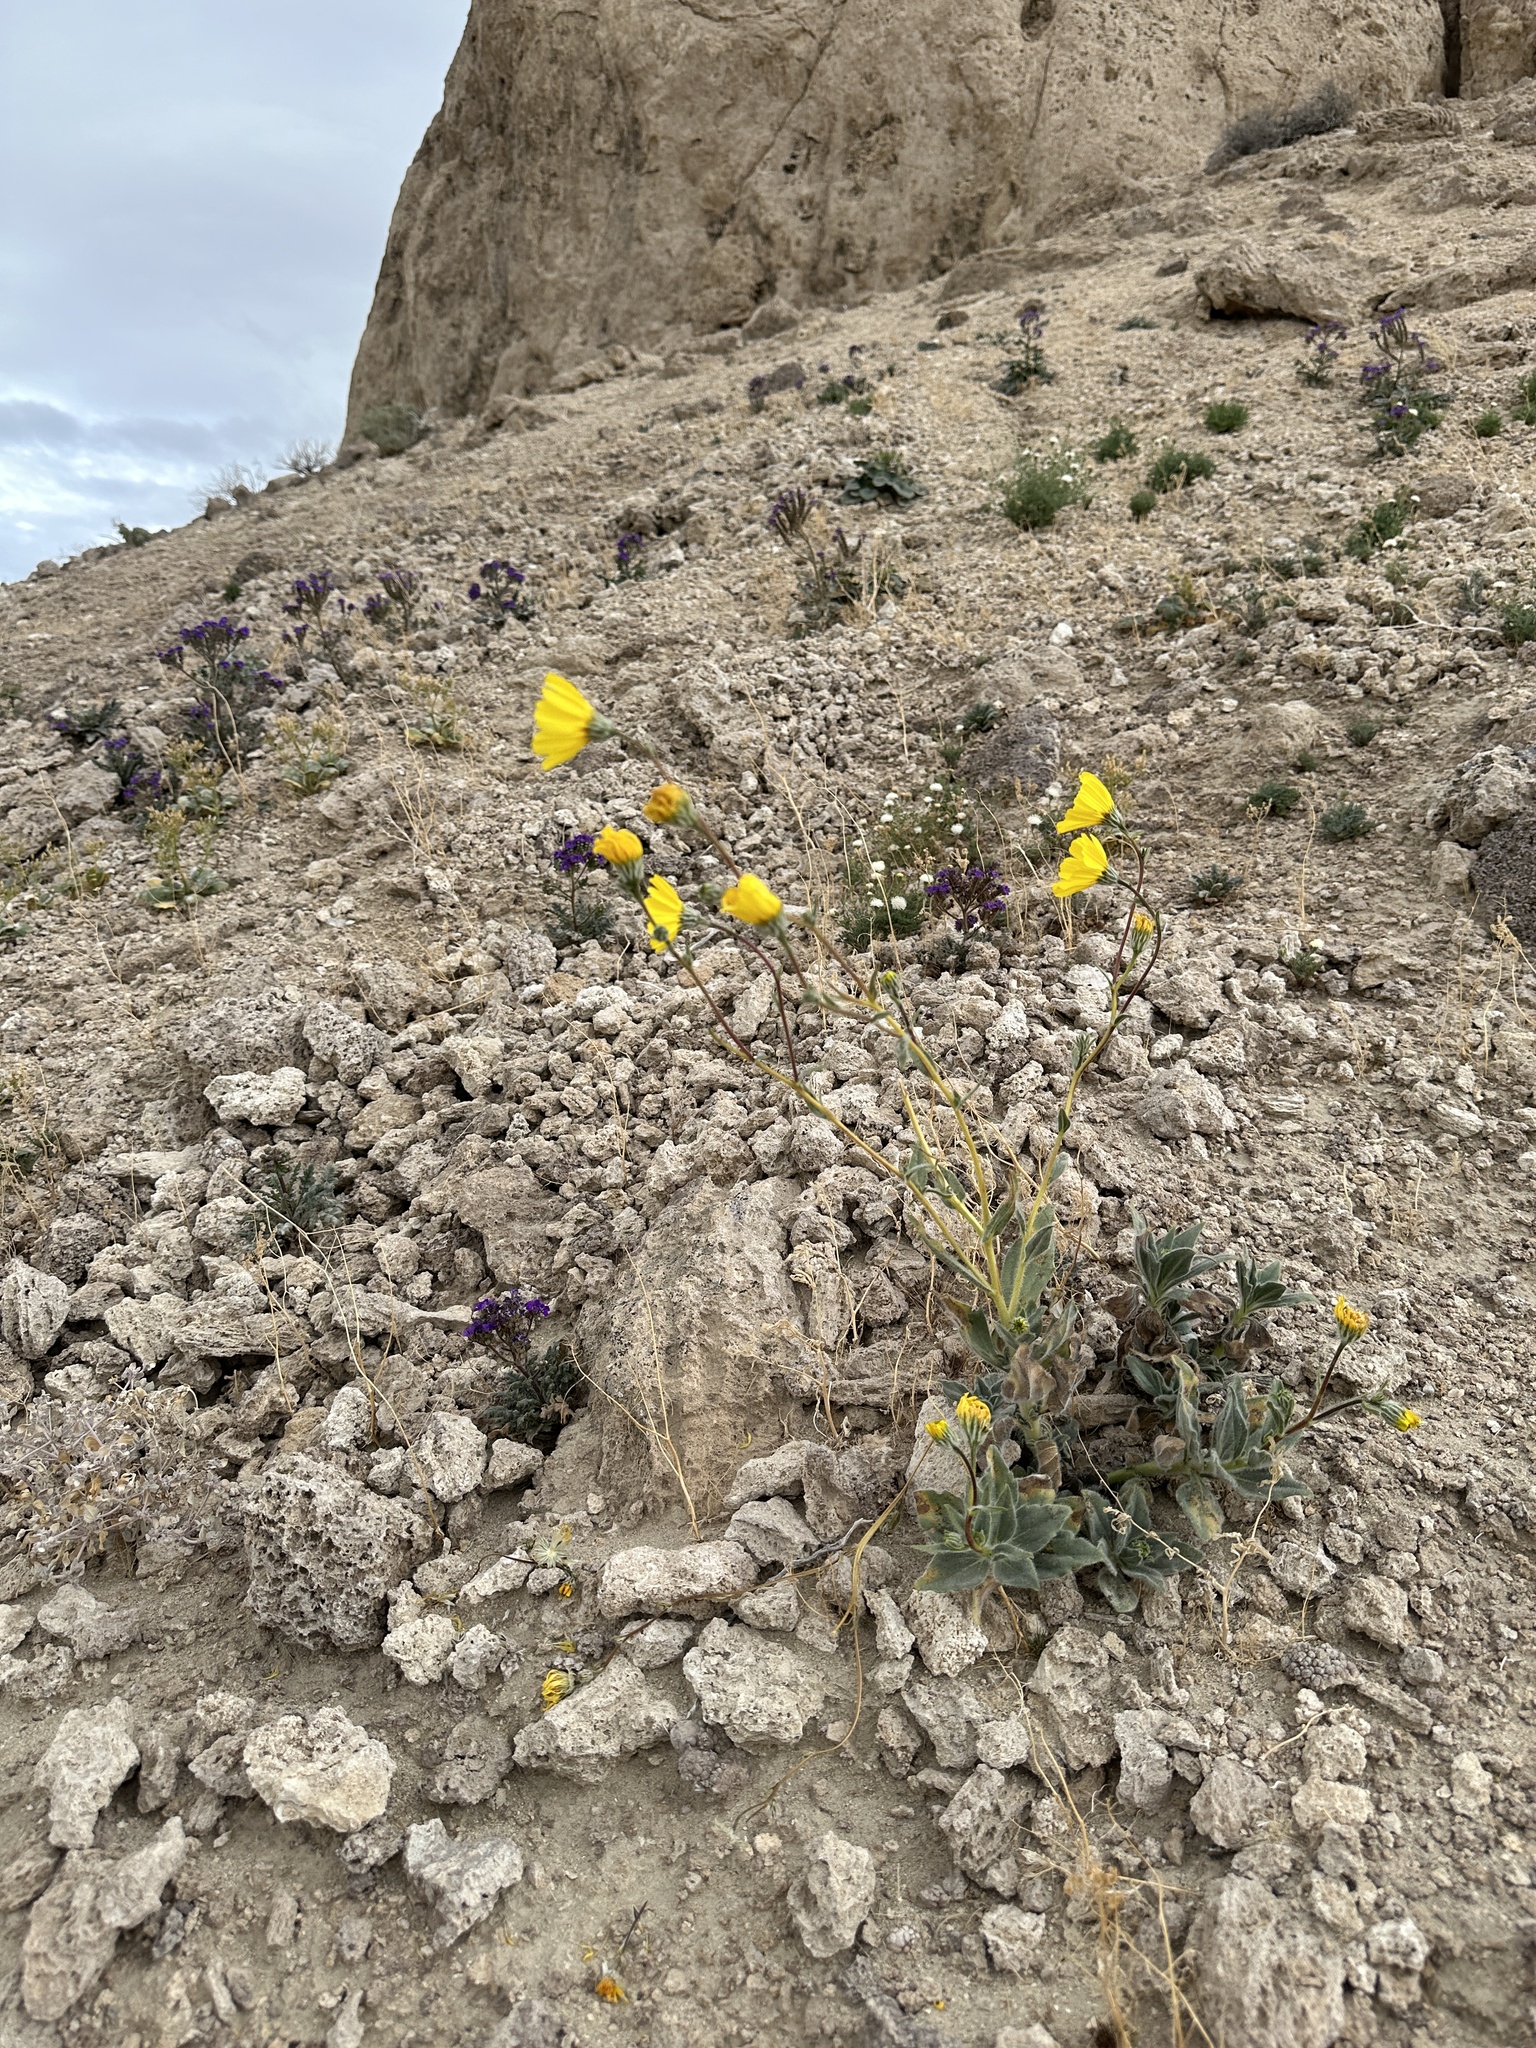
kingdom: Plantae
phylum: Tracheophyta
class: Magnoliopsida
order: Asterales
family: Asteraceae
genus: Geraea
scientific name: Geraea canescens
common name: Desert-gold
